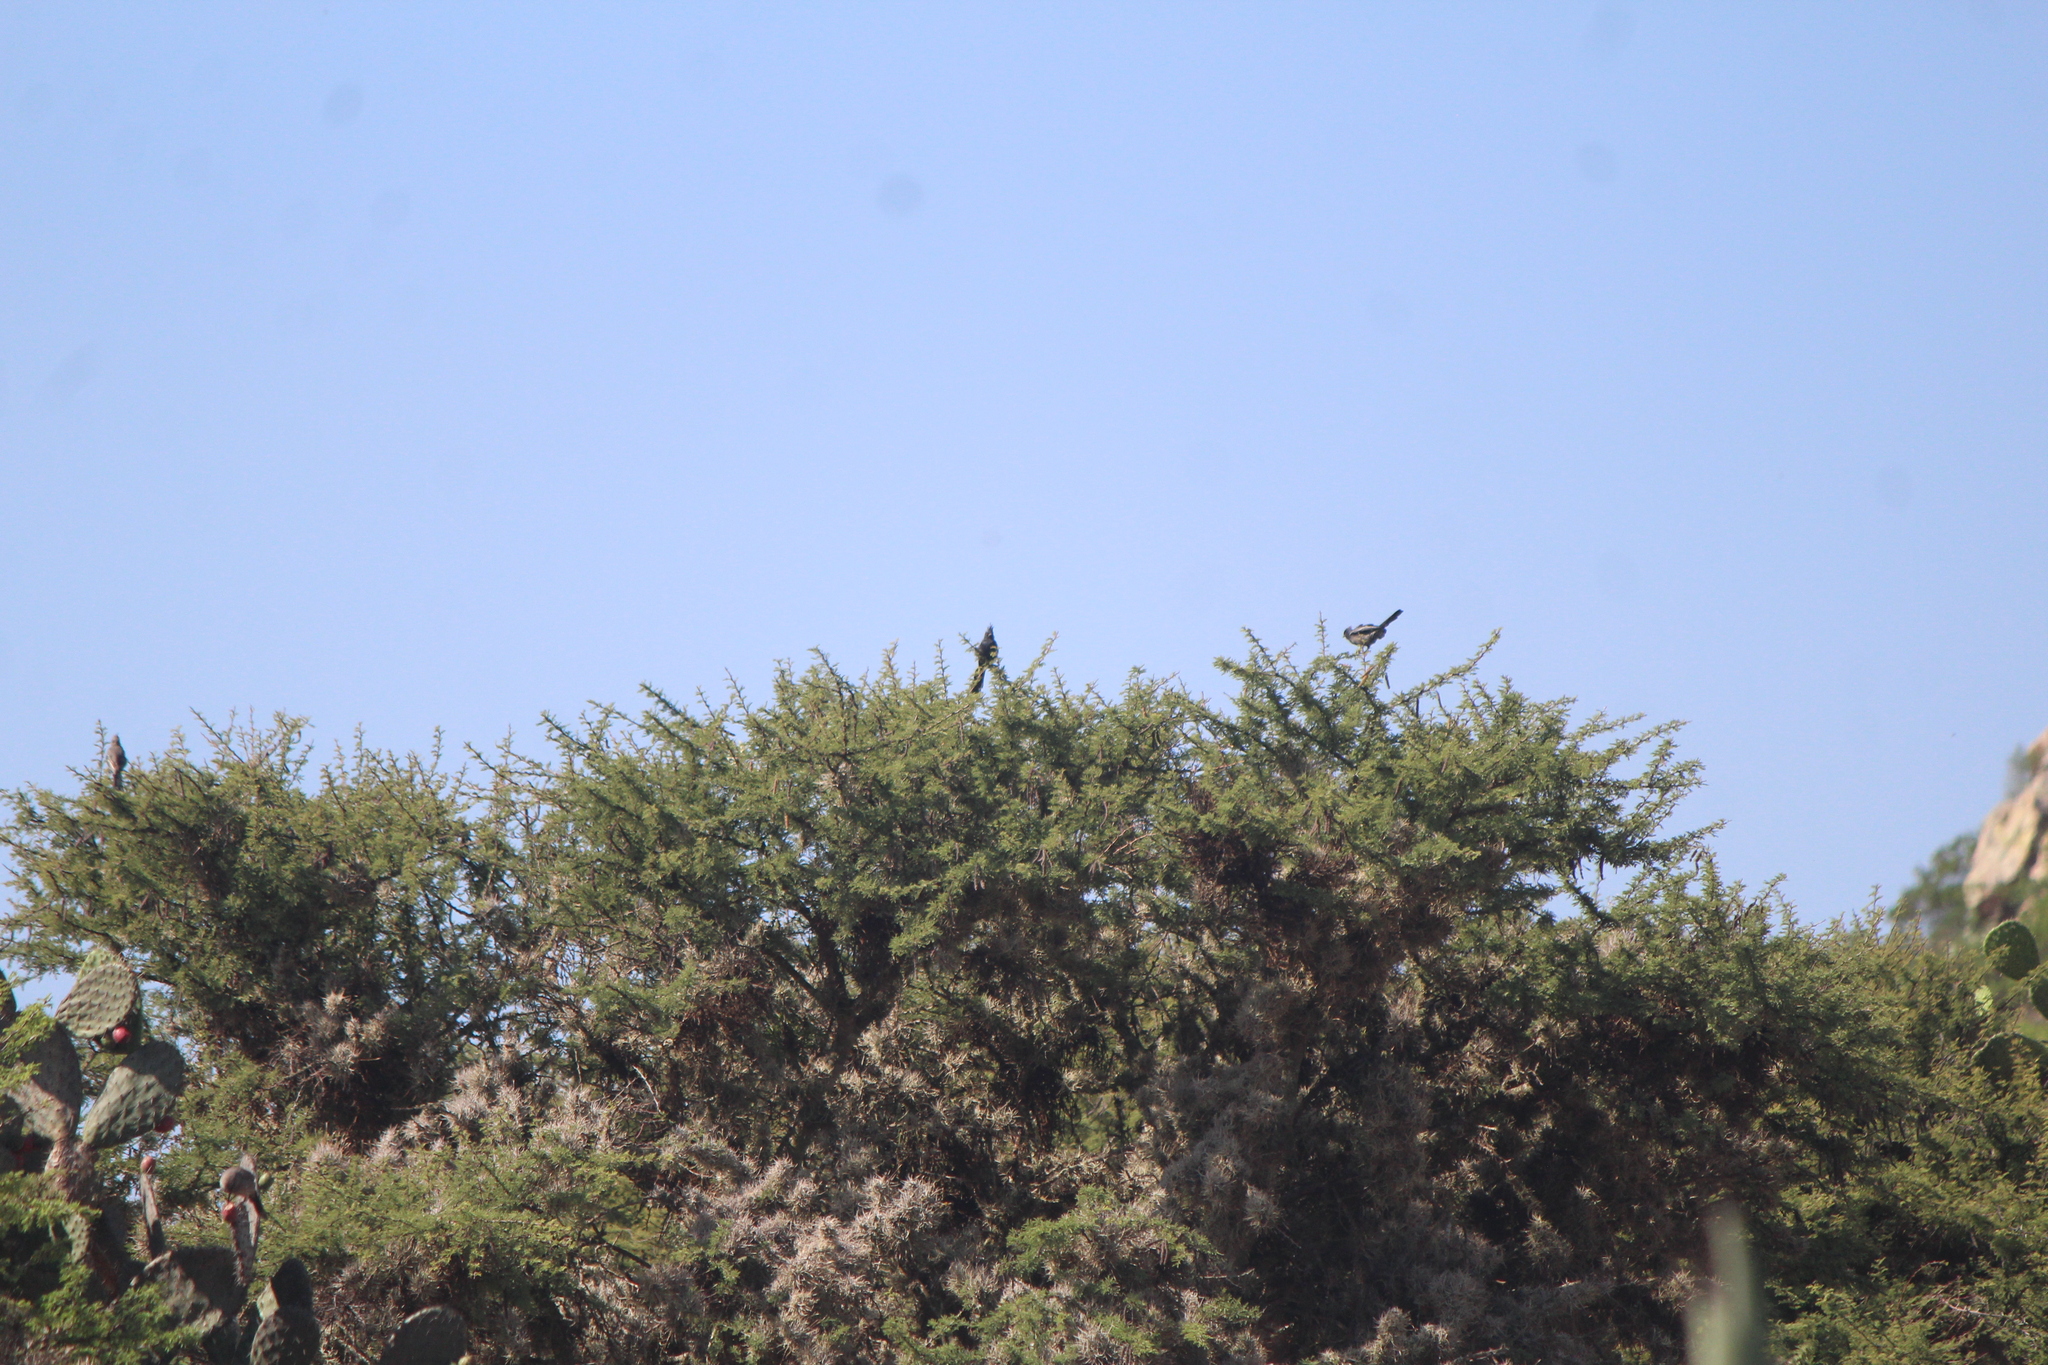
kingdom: Animalia
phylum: Chordata
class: Aves
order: Passeriformes
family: Ptilogonatidae
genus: Phainopepla
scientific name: Phainopepla nitens
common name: Phainopepla
